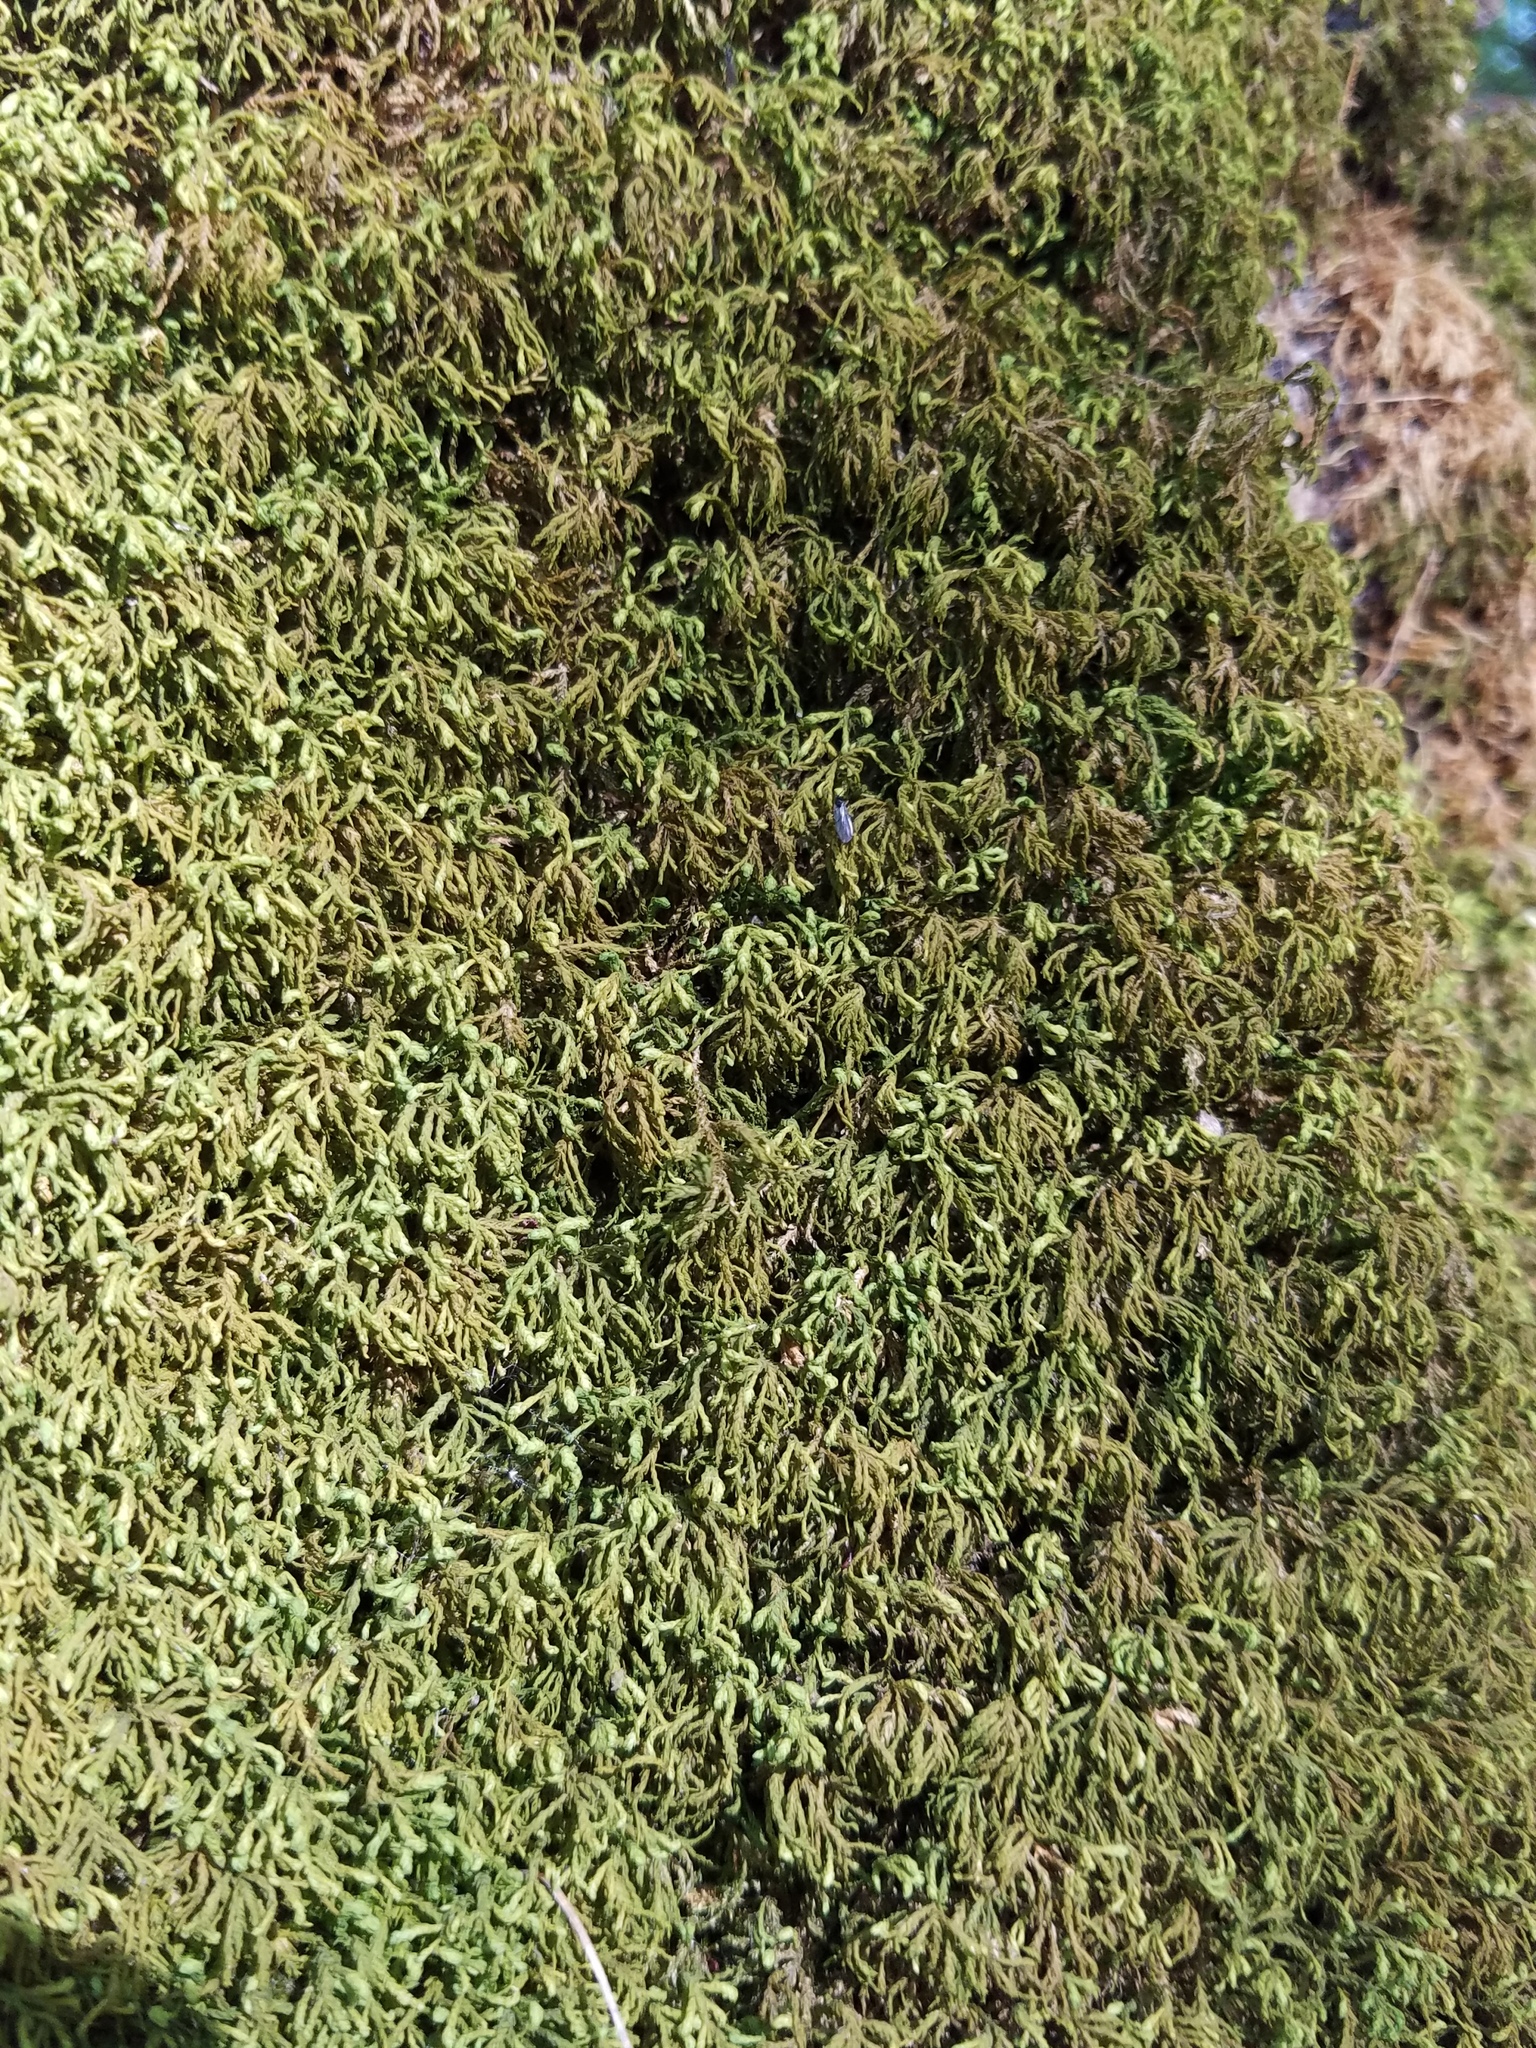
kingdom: Plantae
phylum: Bryophyta
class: Bryopsida
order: Hypnales
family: Neckeraceae
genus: Pseudanomodon
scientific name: Pseudanomodon attenuatus
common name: Tree-skirt moss
